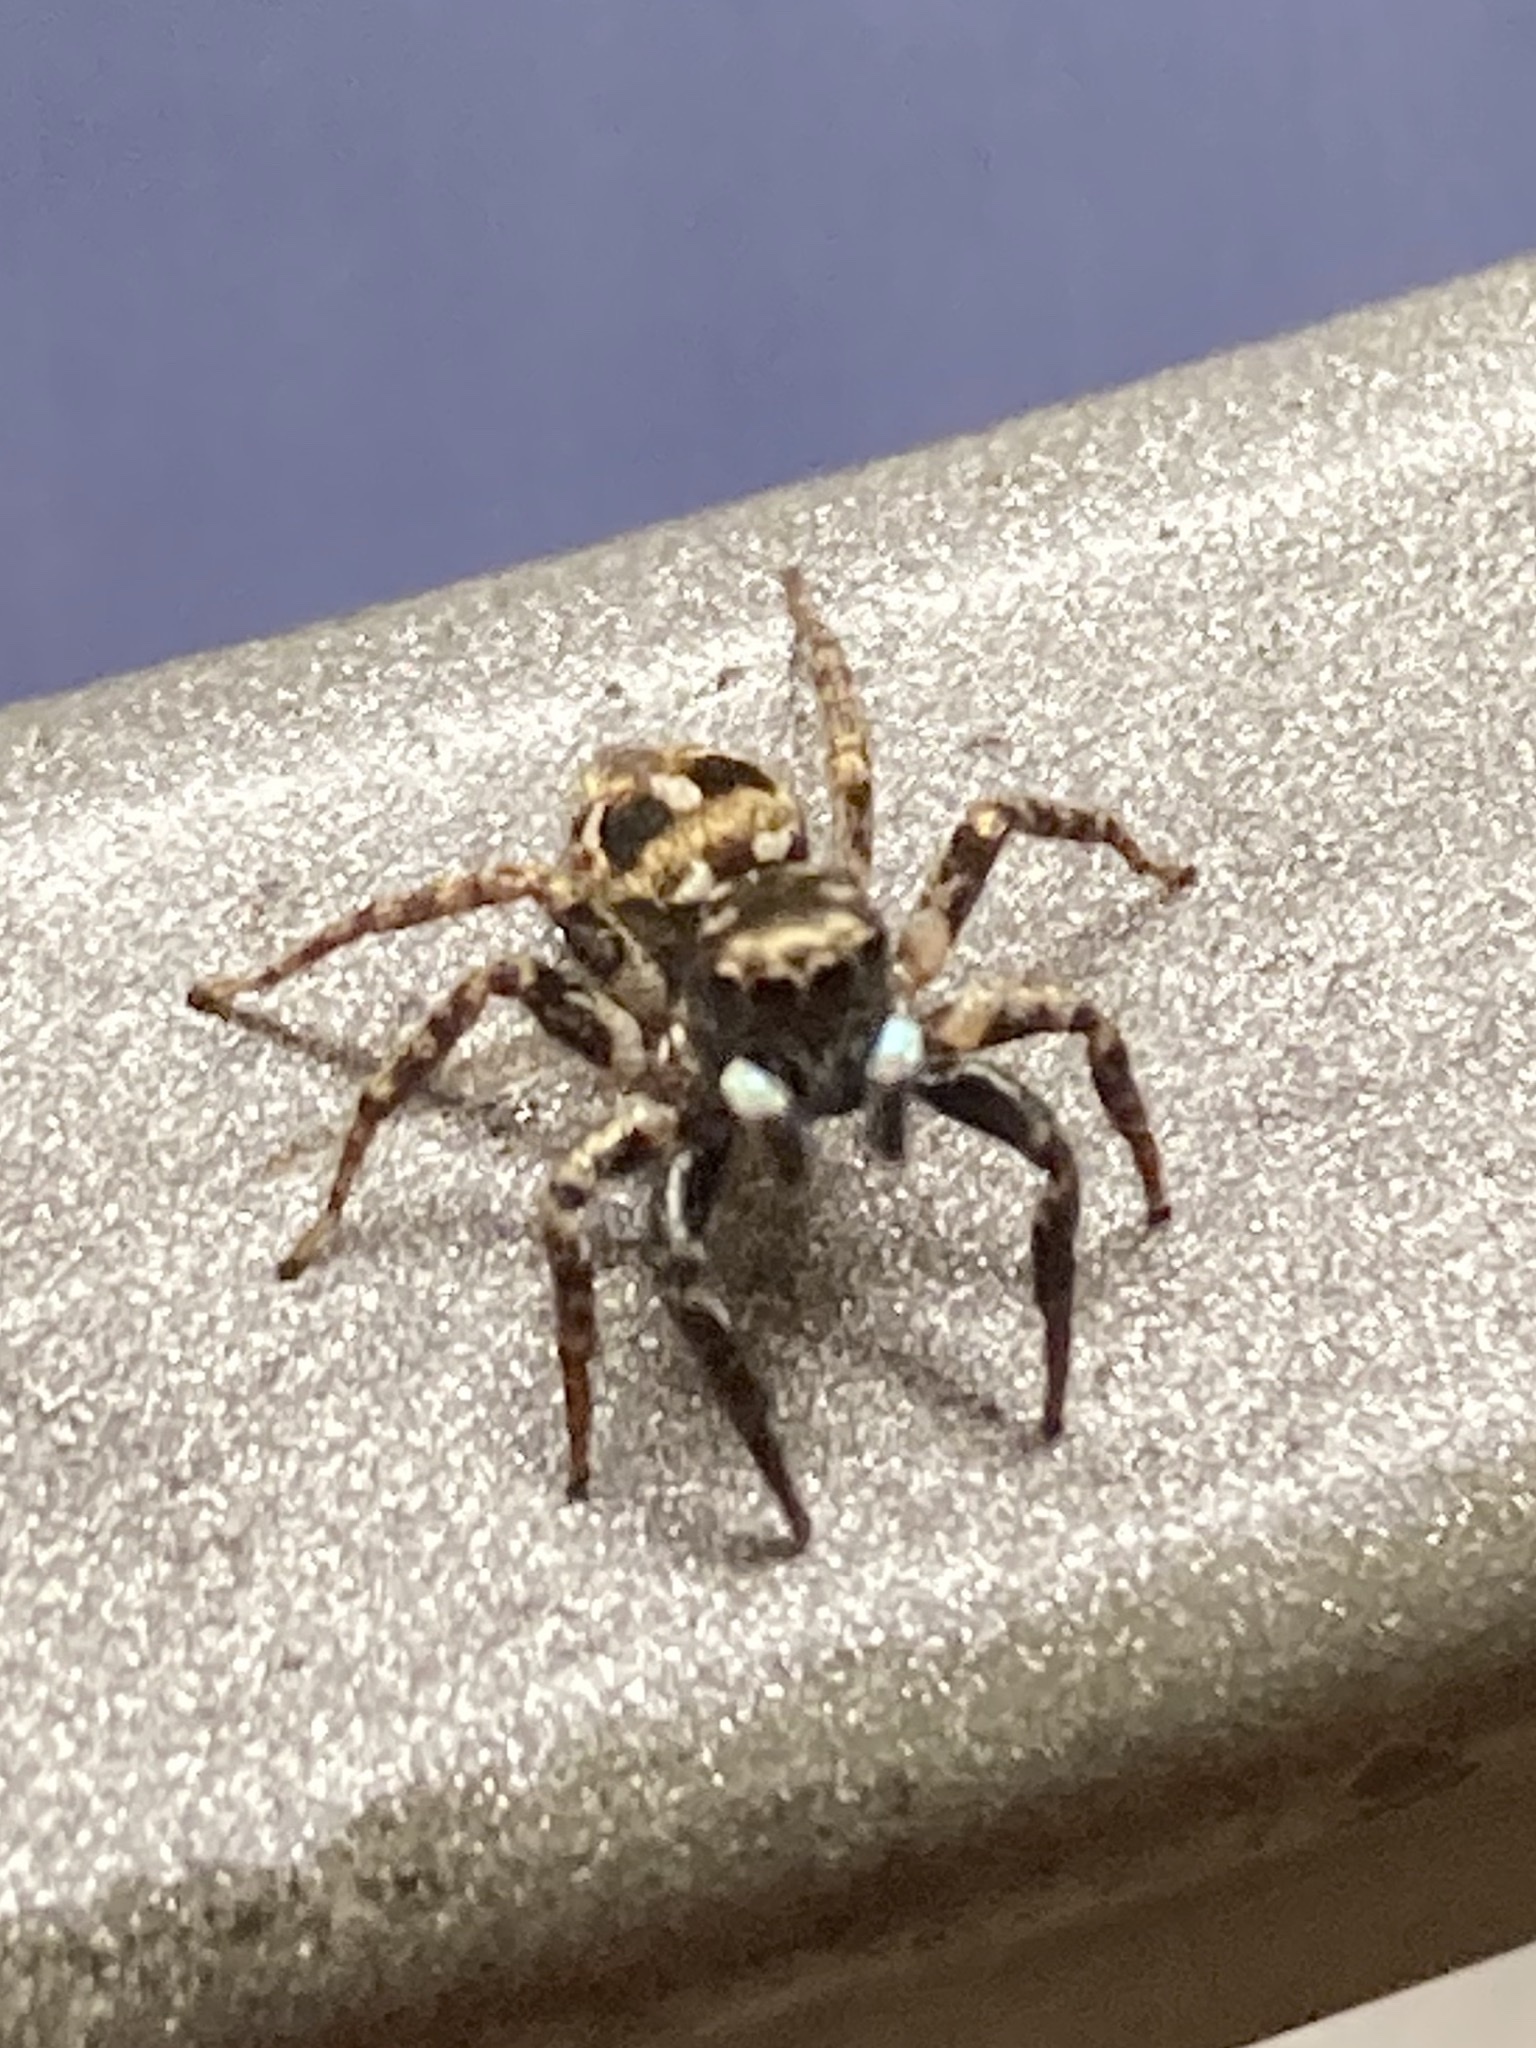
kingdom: Animalia
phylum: Arthropoda
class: Arachnida
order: Araneae
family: Salticidae
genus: Anasaitis
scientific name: Anasaitis canosa
